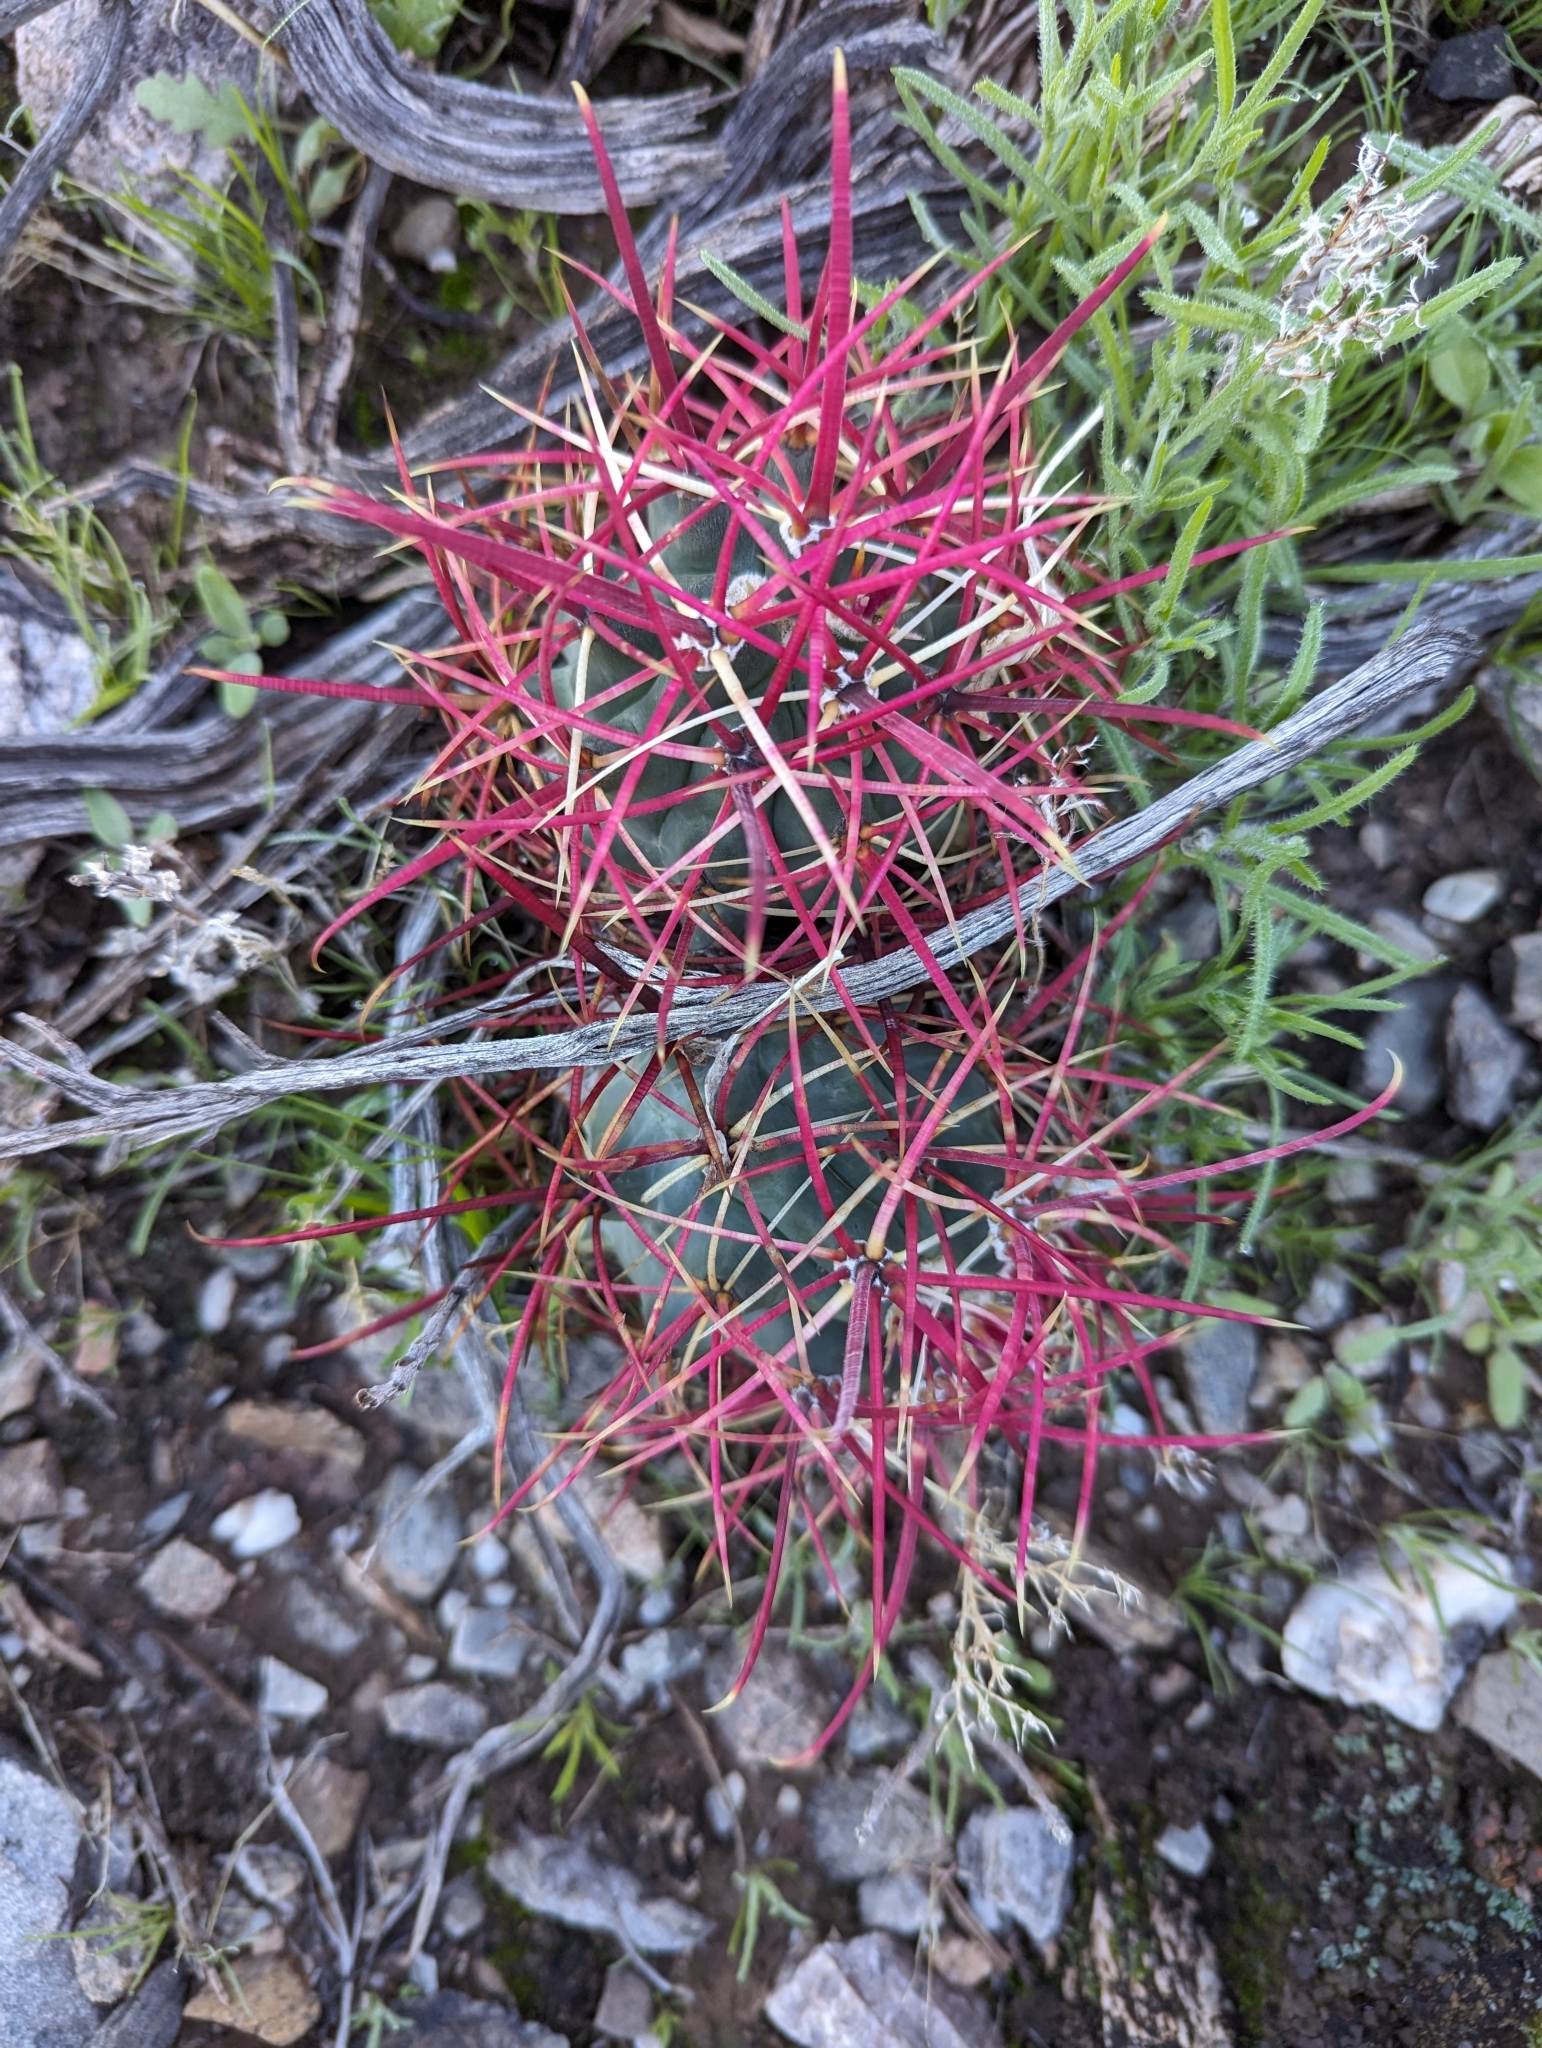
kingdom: Plantae
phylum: Tracheophyta
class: Magnoliopsida
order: Caryophyllales
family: Cactaceae
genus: Ferocactus
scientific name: Ferocactus cylindraceus
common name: California barrel cactus
